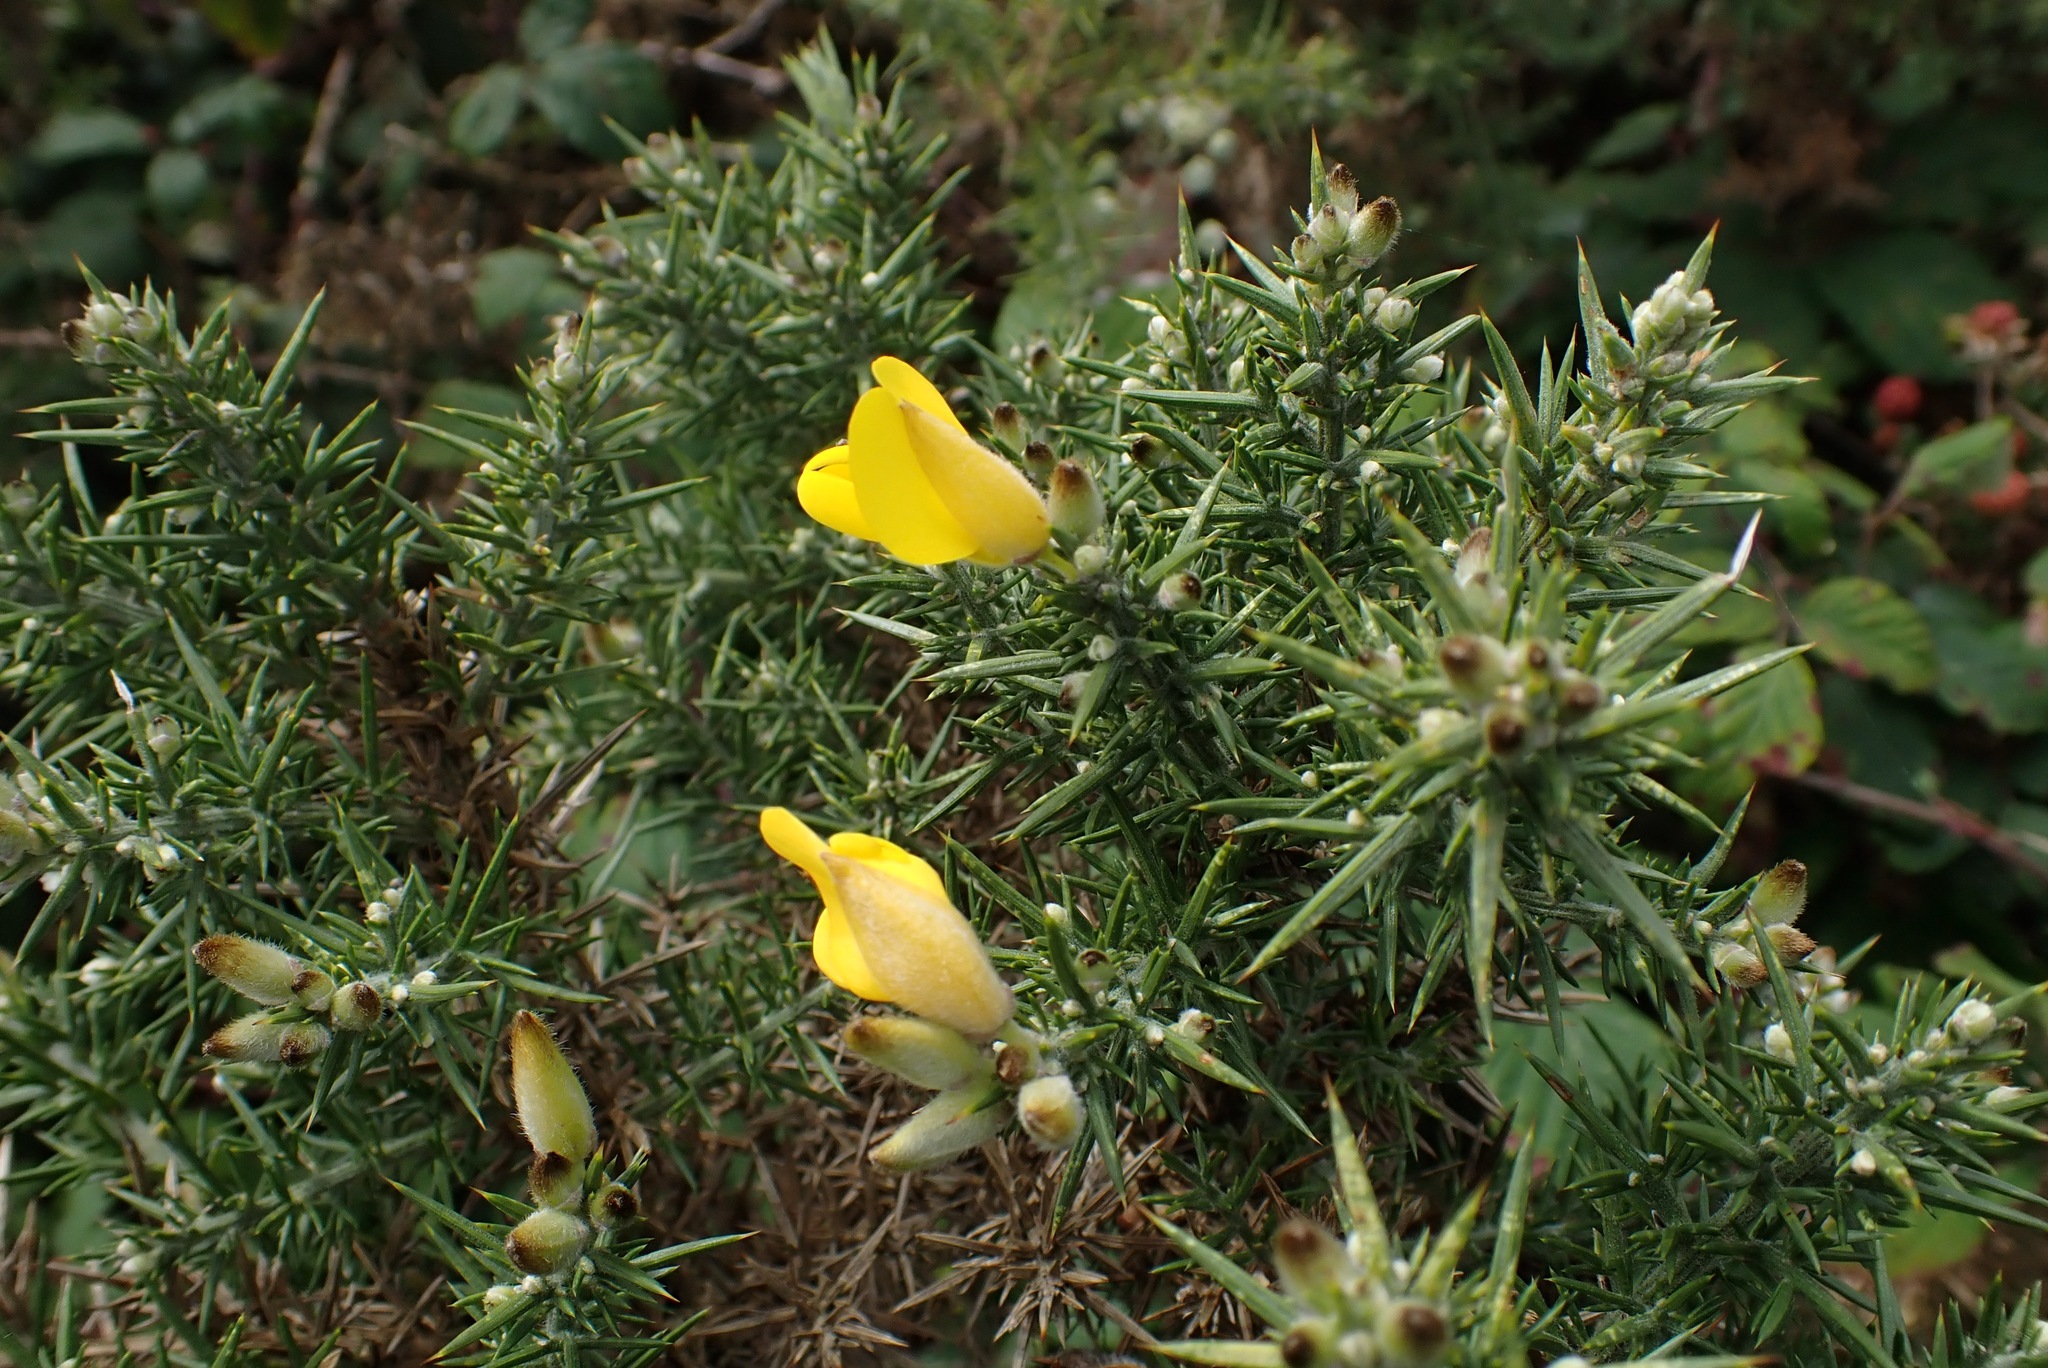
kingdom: Plantae
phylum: Tracheophyta
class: Magnoliopsida
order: Fabales
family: Fabaceae
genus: Ulex
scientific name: Ulex europaeus
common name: Common gorse
